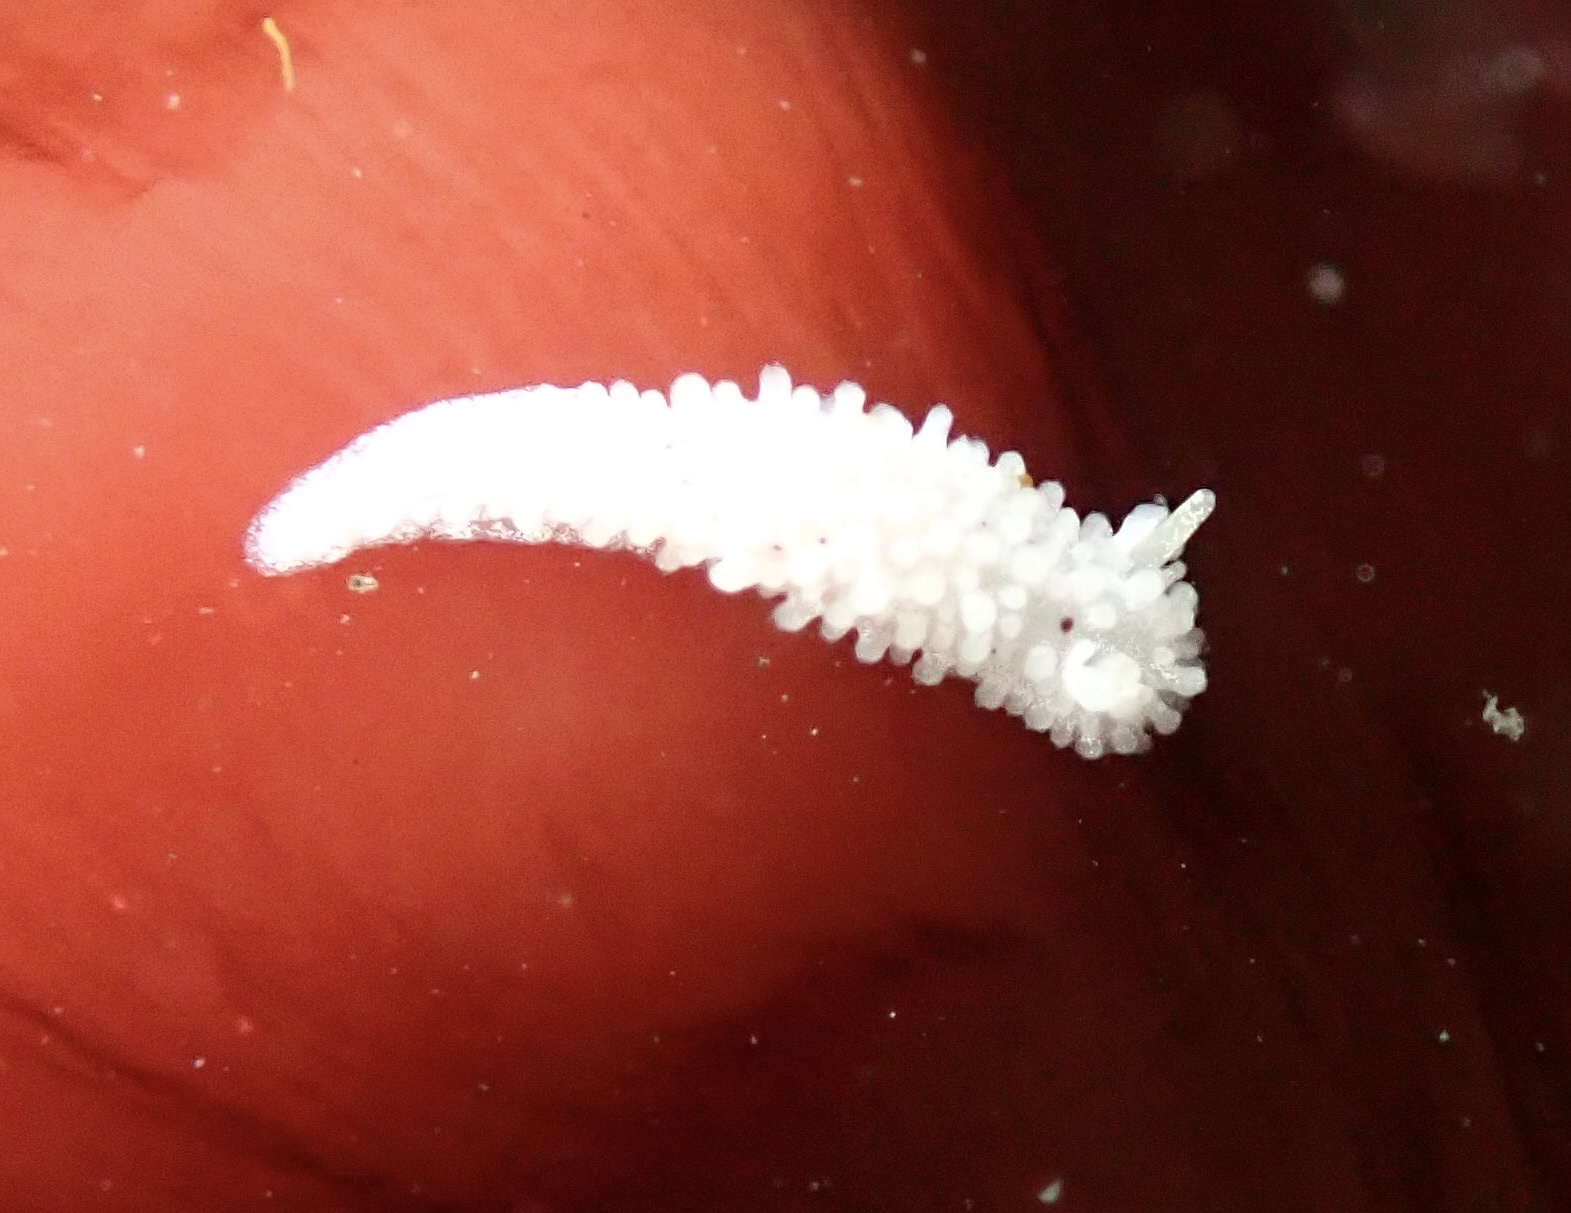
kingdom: Animalia
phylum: Mollusca
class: Gastropoda
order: Nudibranchia
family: Aegiridae
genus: Aegires
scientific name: Aegires albopunctatus
